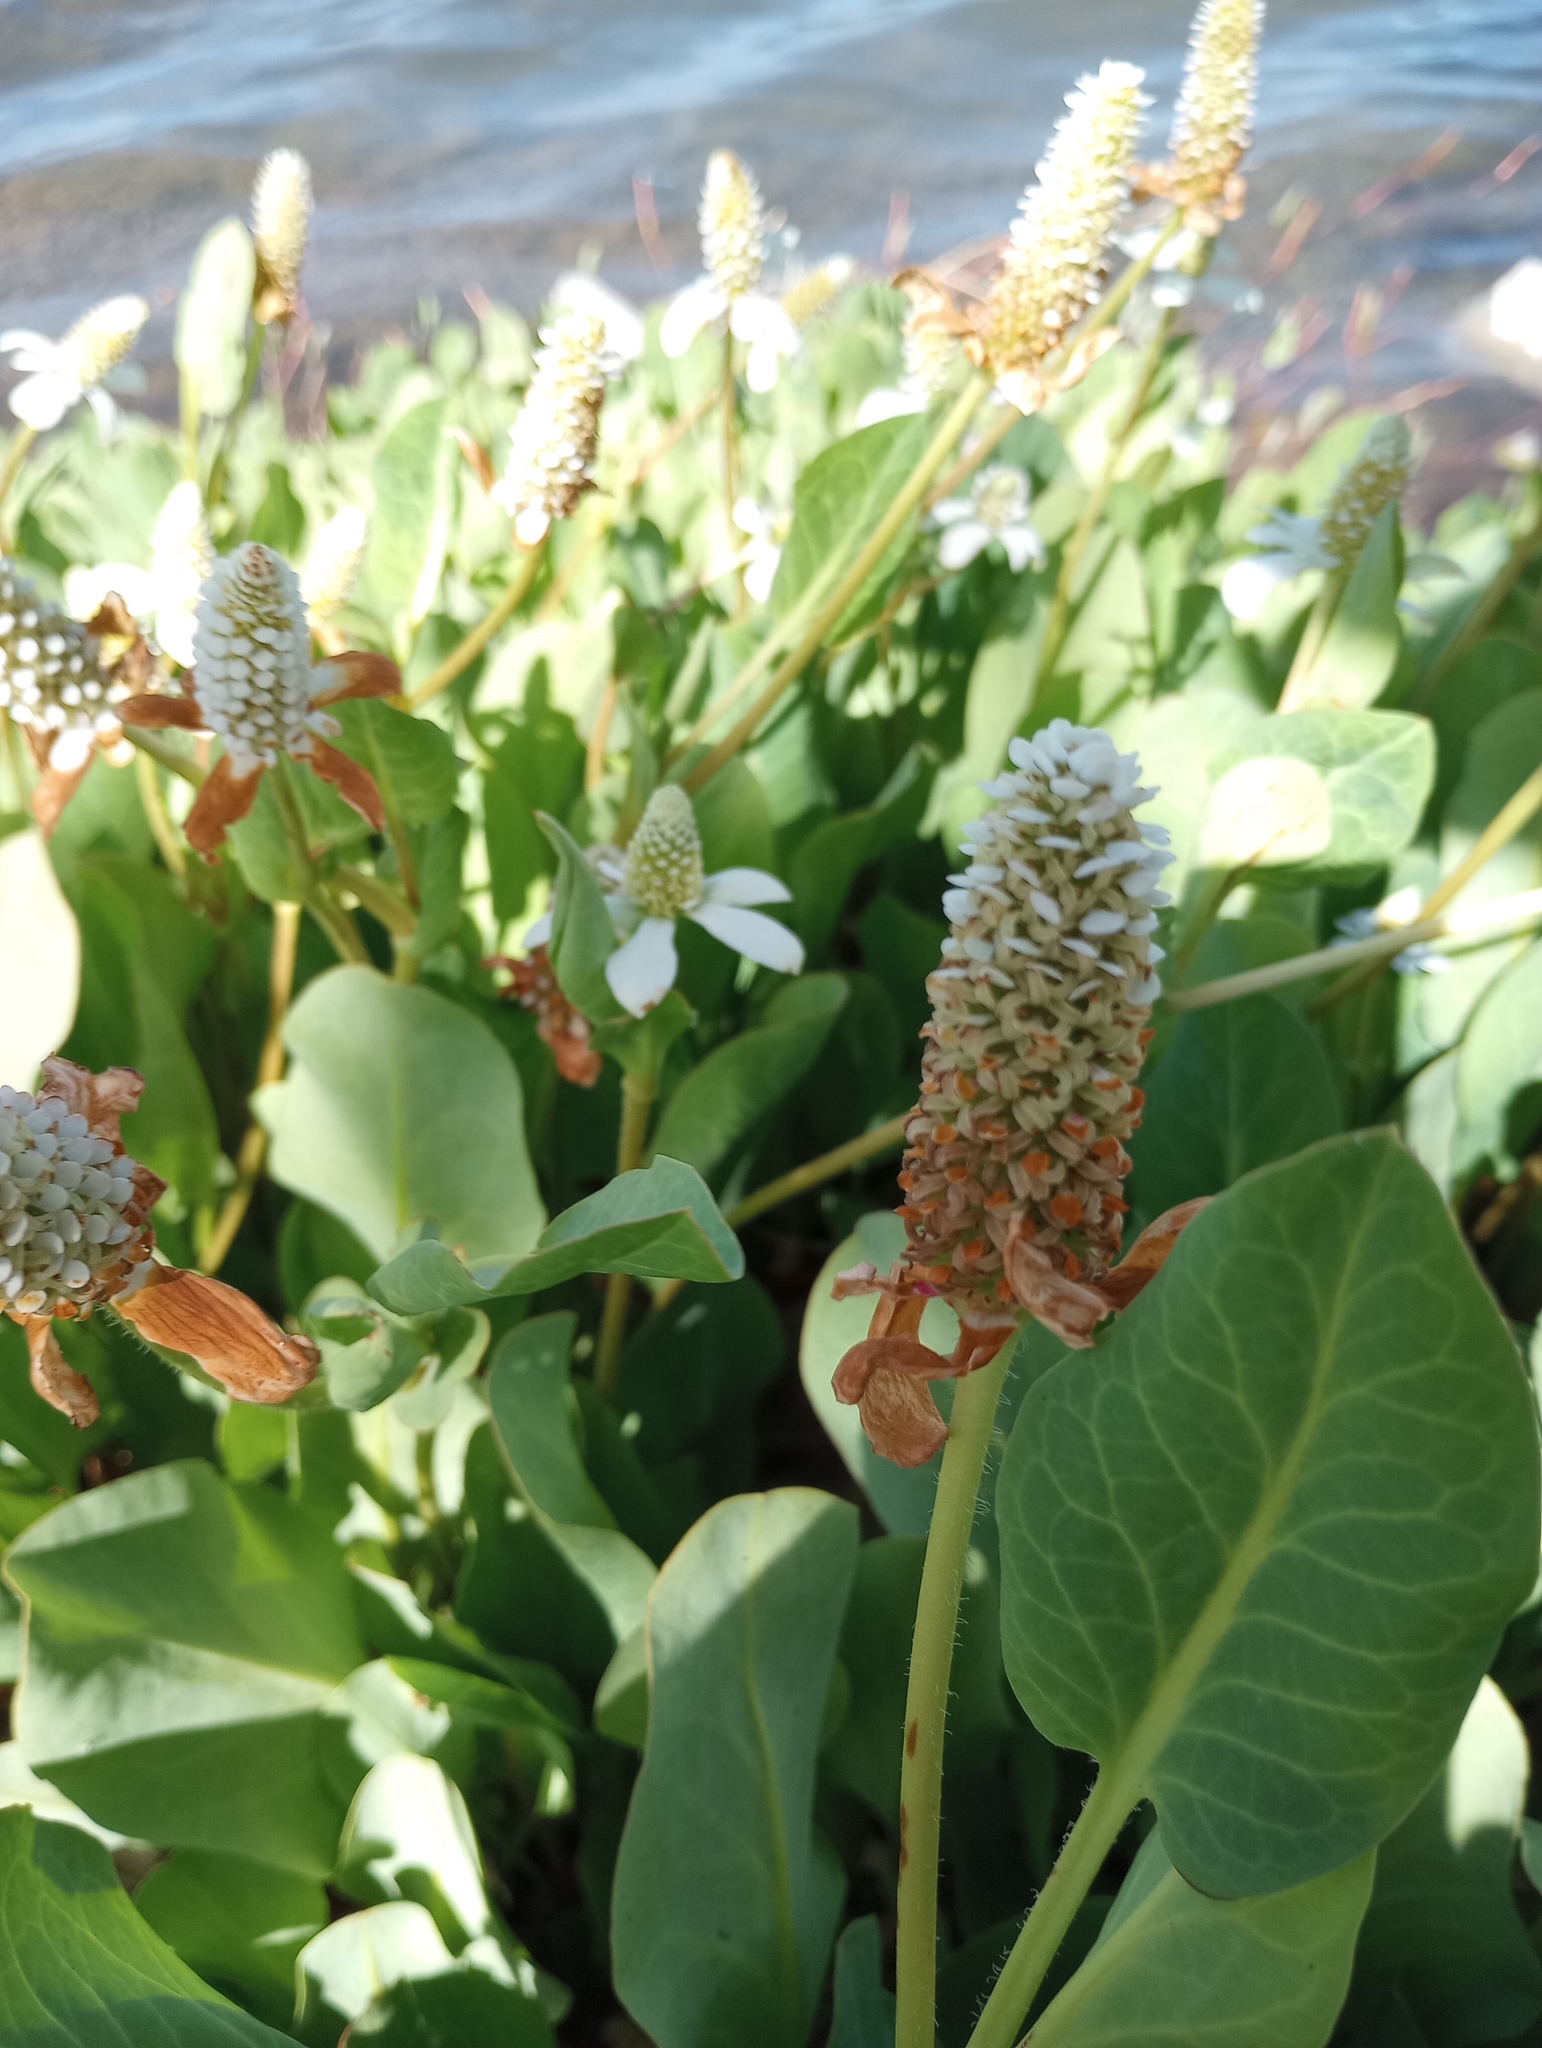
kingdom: Plantae
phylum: Tracheophyta
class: Magnoliopsida
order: Piperales
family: Saururaceae
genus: Anemopsis
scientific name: Anemopsis californica
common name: Apache-beads
